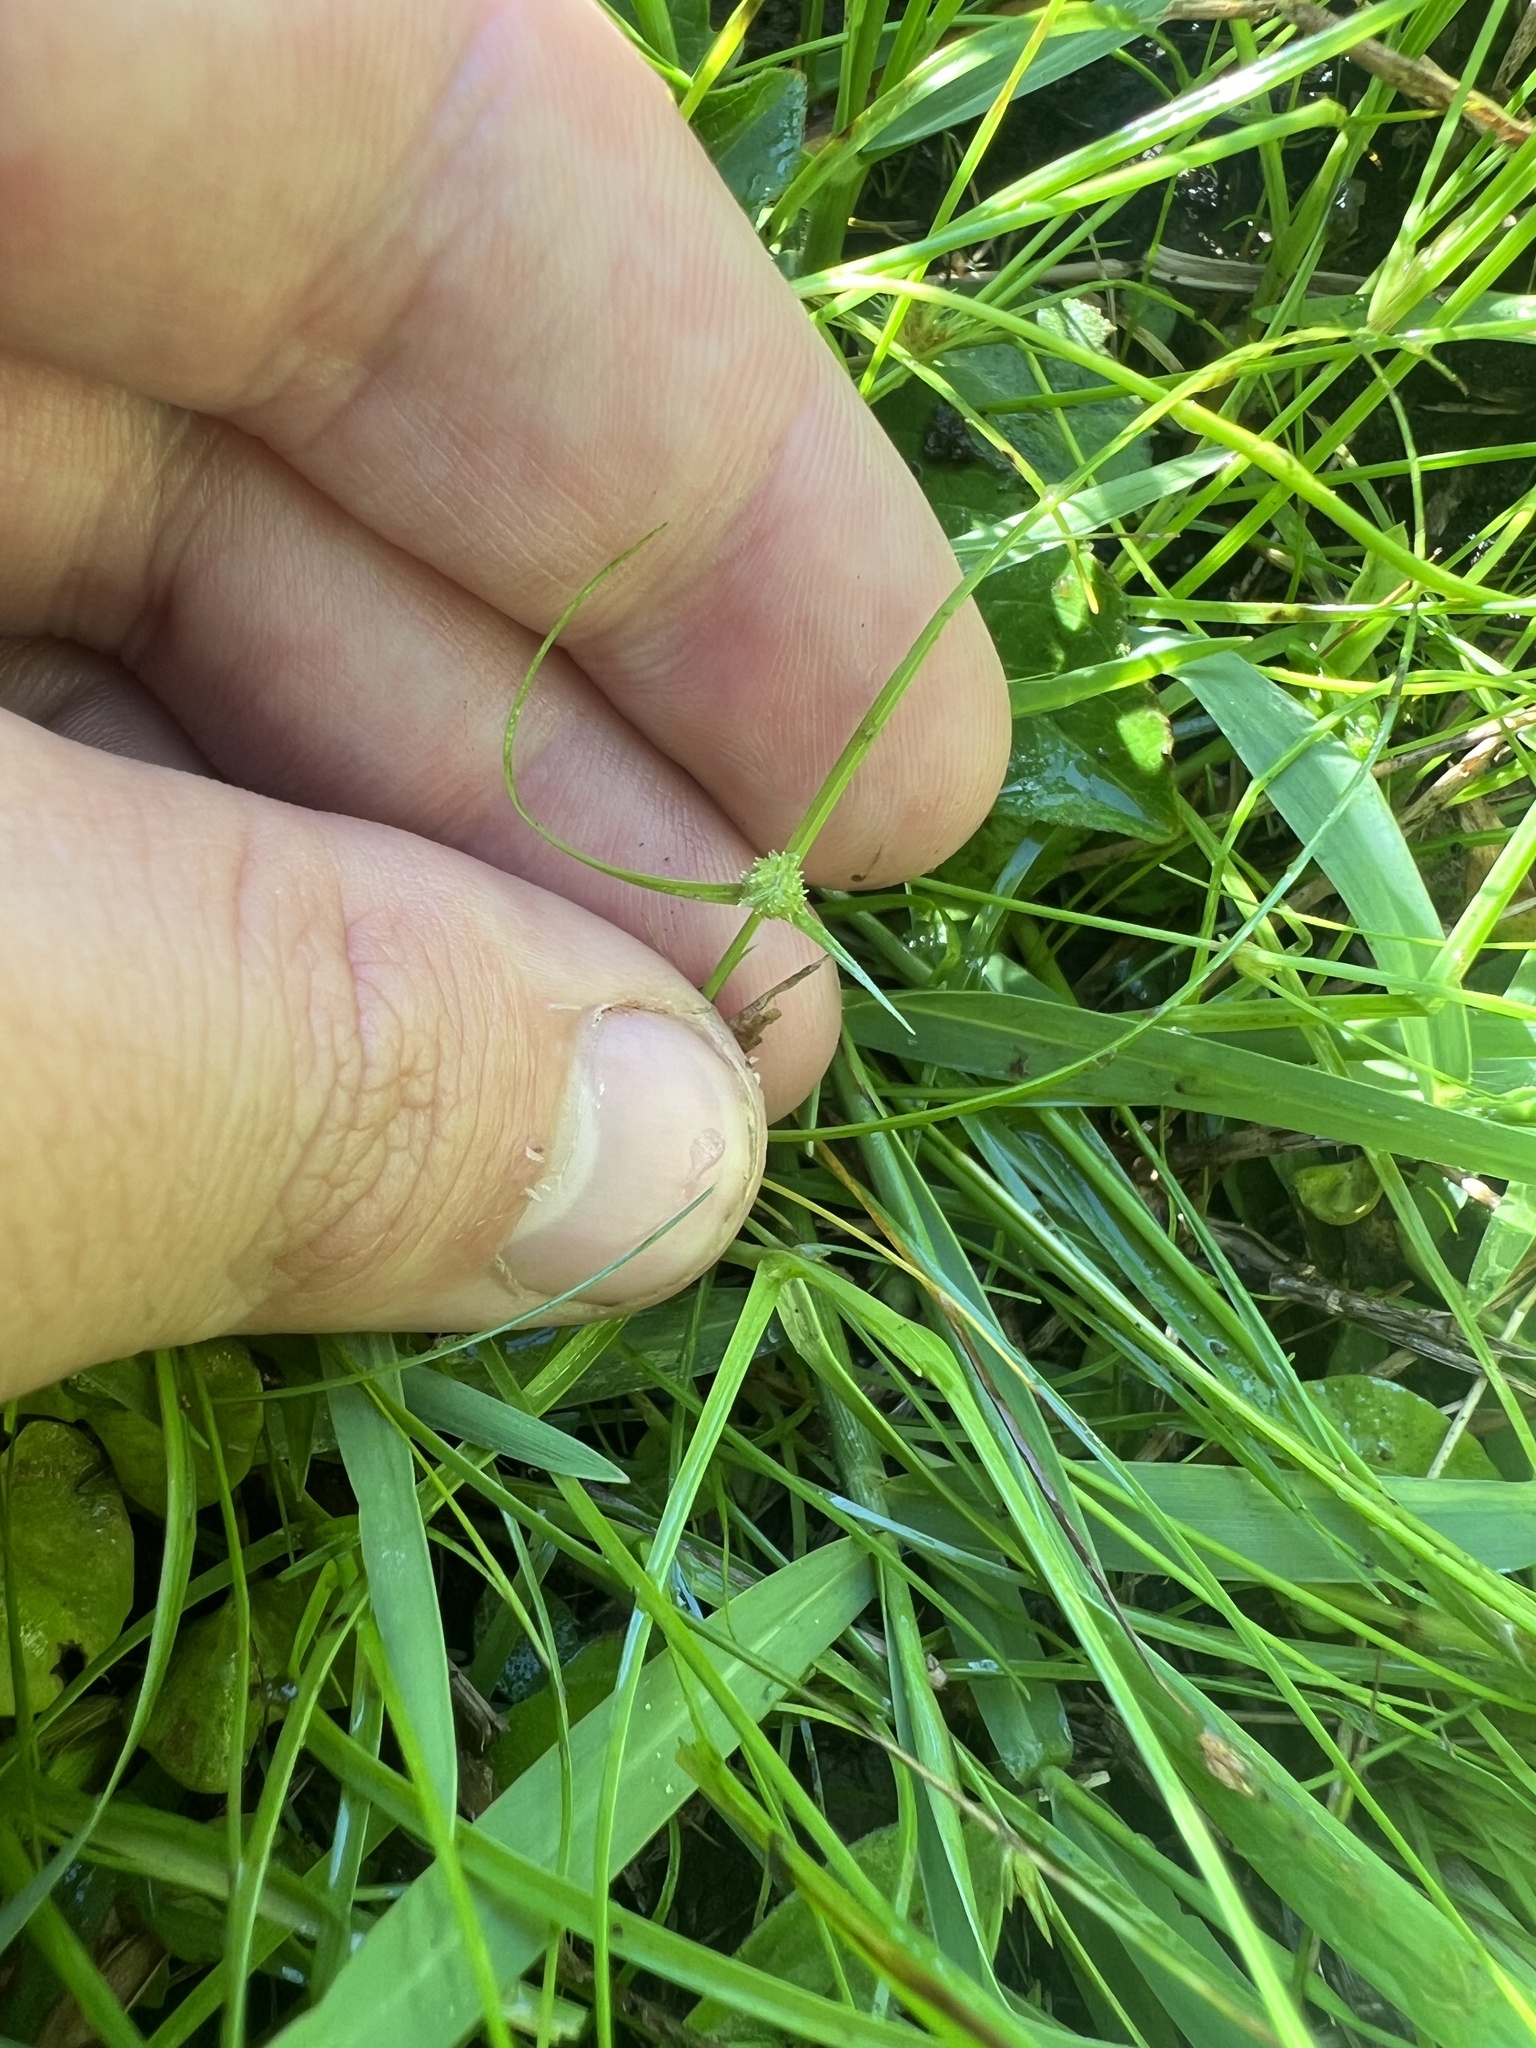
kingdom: Plantae
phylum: Tracheophyta
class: Liliopsida
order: Poales
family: Cyperaceae
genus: Cyperus
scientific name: Cyperus brevifolius
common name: Globe kyllinga
